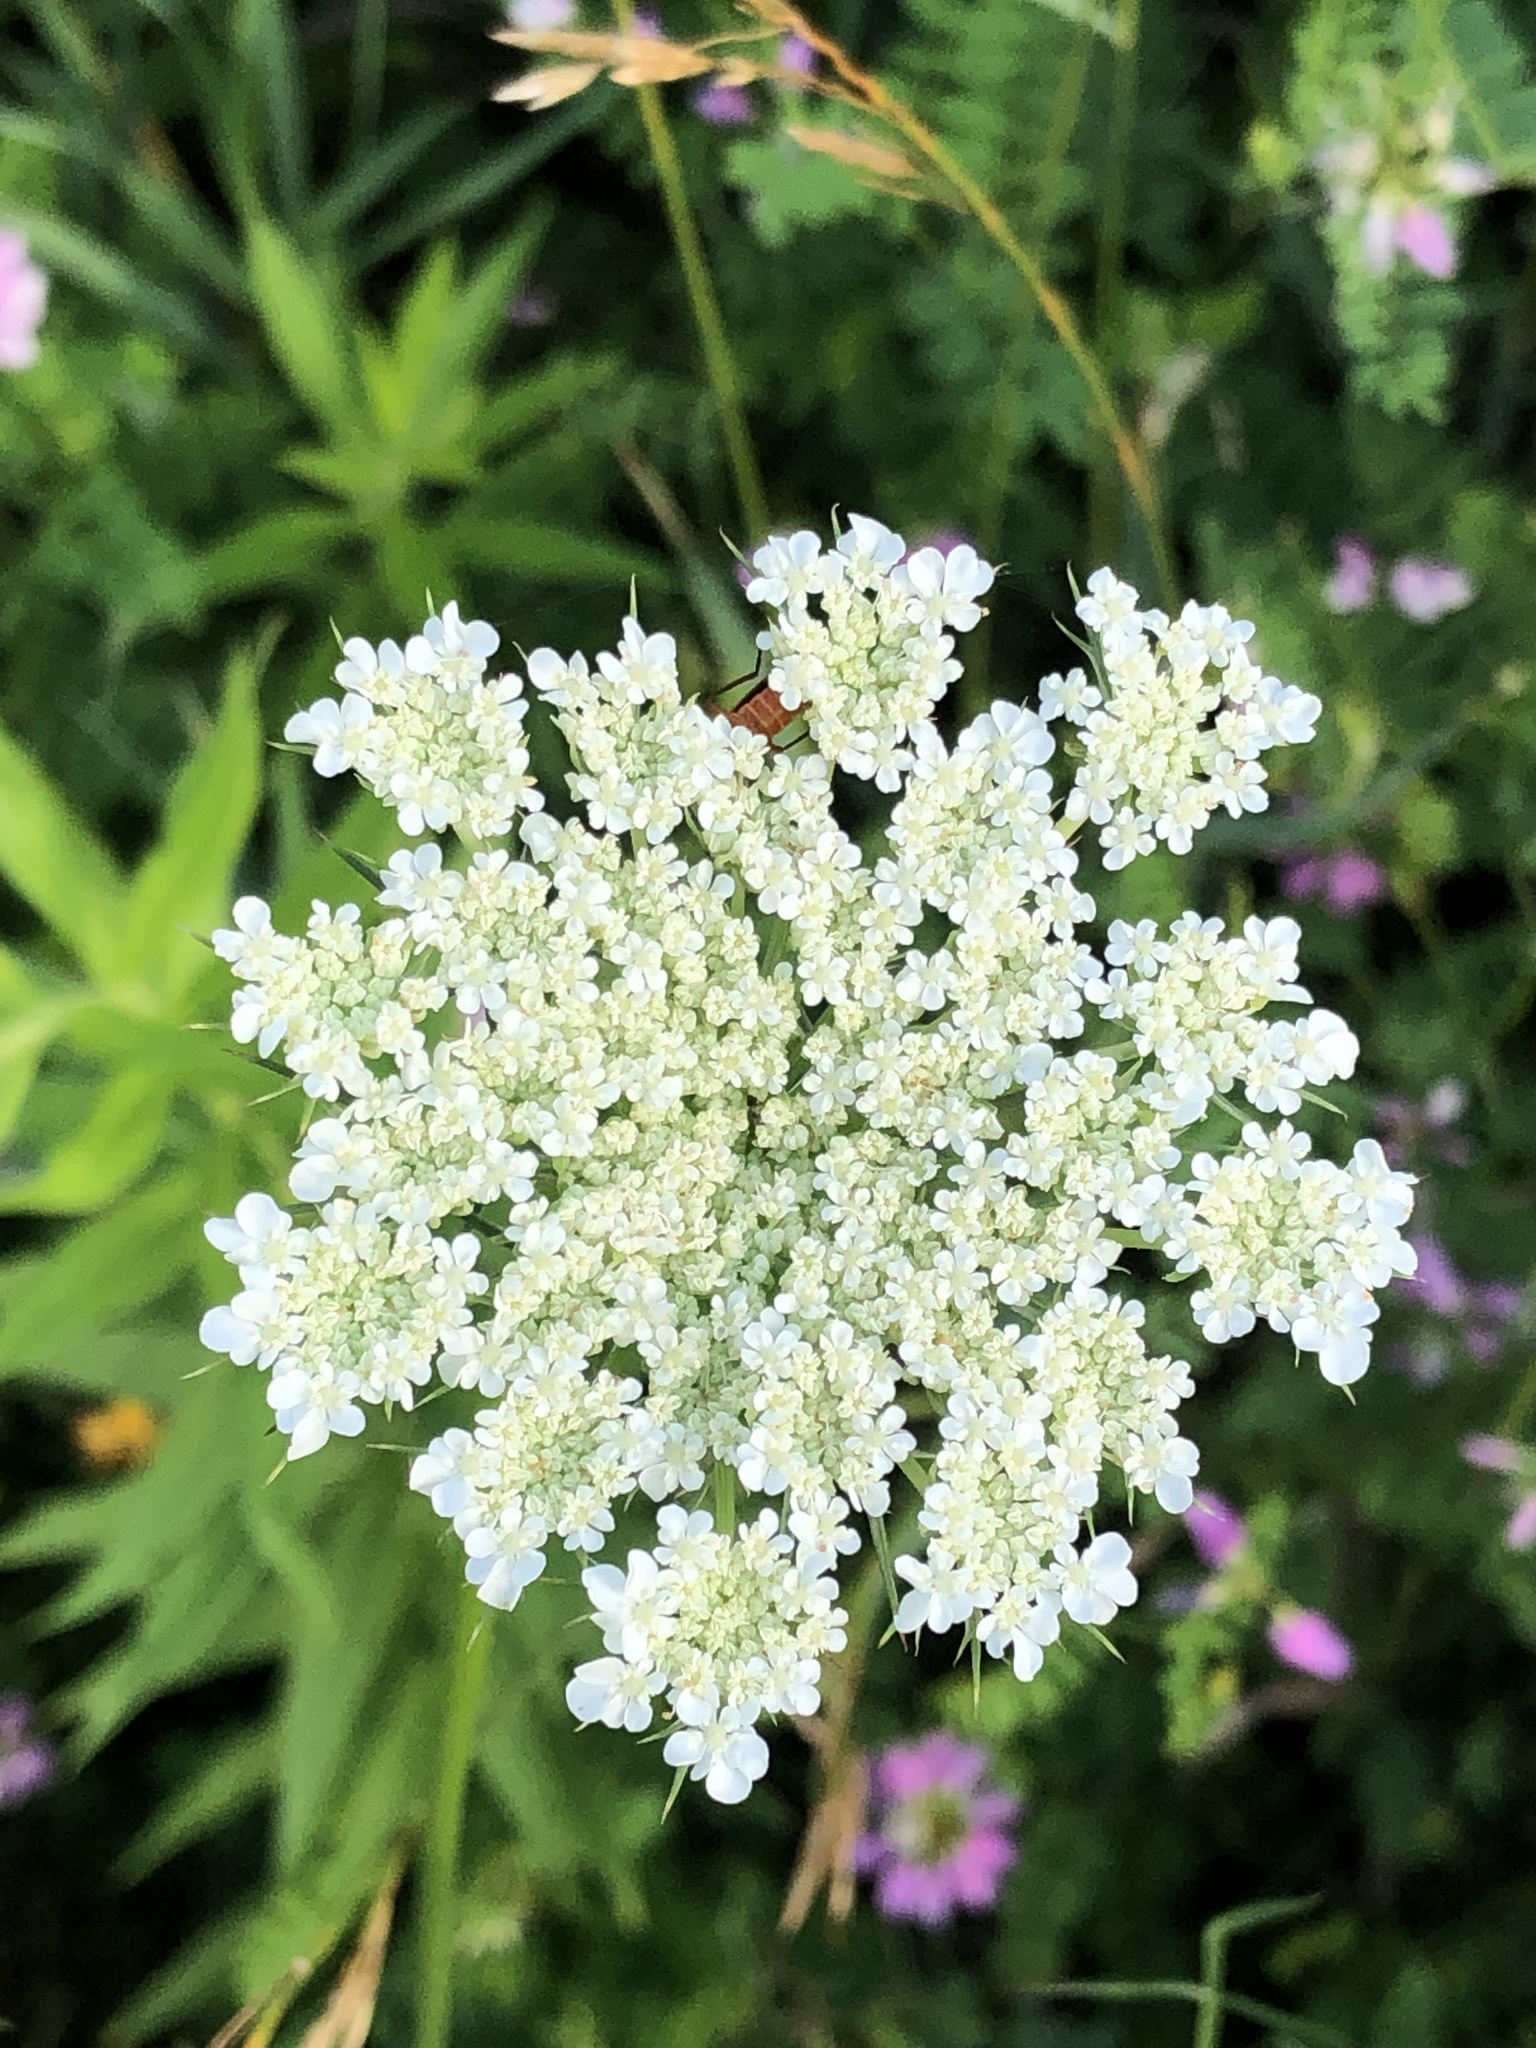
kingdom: Plantae
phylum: Tracheophyta
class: Magnoliopsida
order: Apiales
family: Apiaceae
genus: Daucus
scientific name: Daucus carota
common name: Wild carrot
